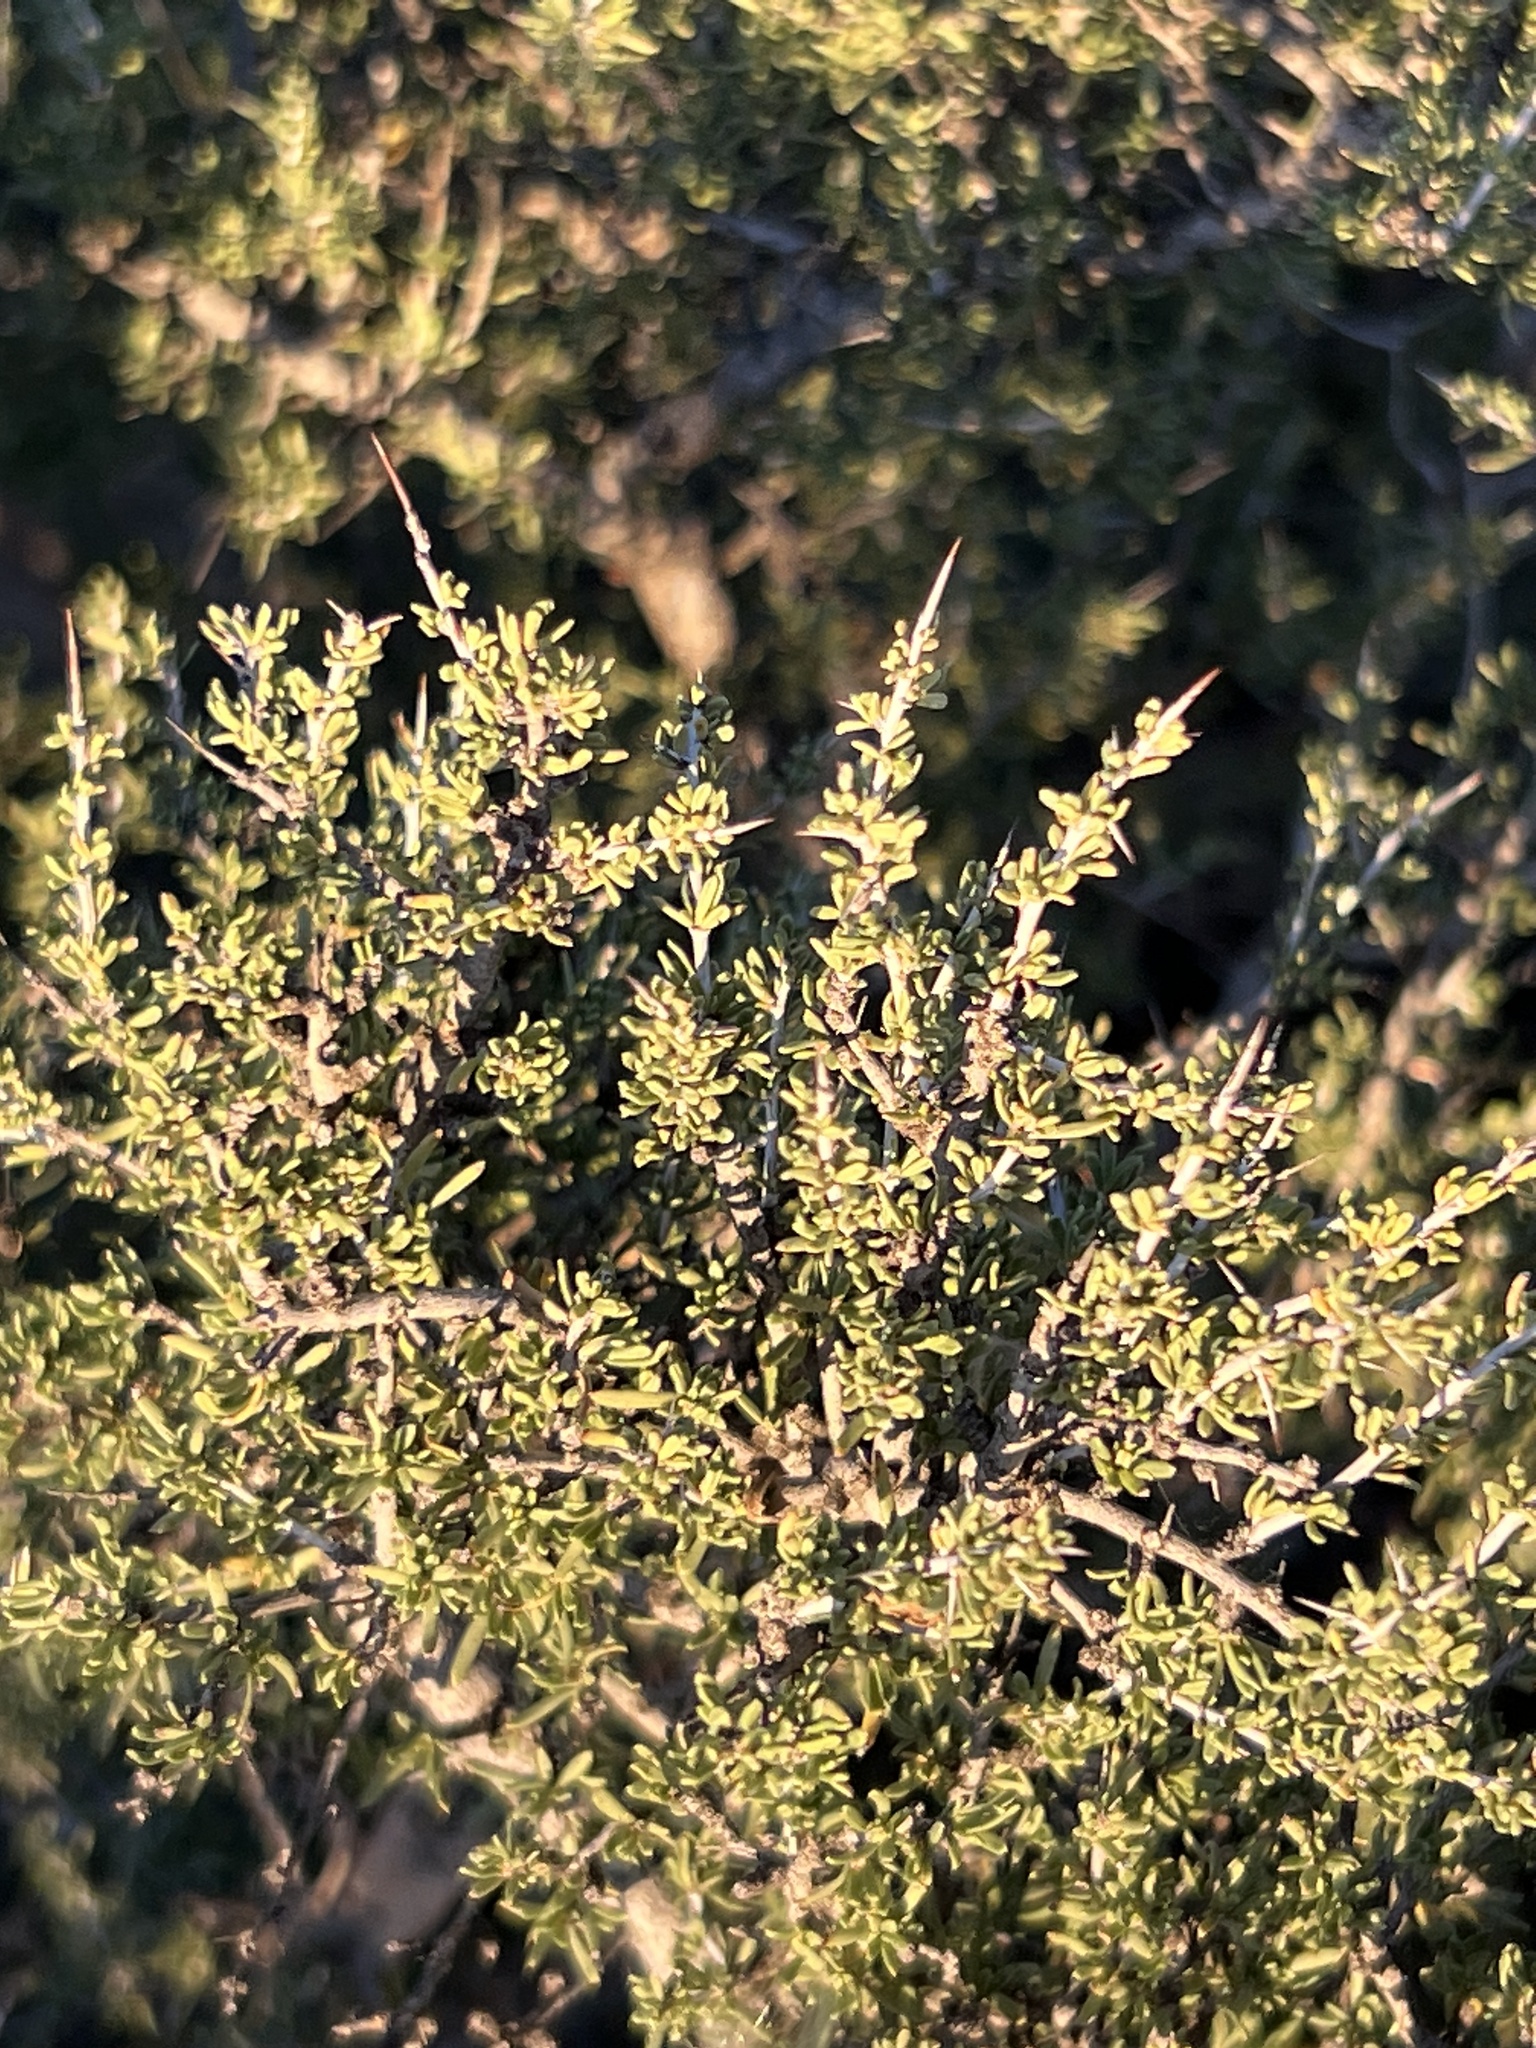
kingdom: Plantae
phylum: Tracheophyta
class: Magnoliopsida
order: Rosales
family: Rhamnaceae
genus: Condalia
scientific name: Condalia ericoides
